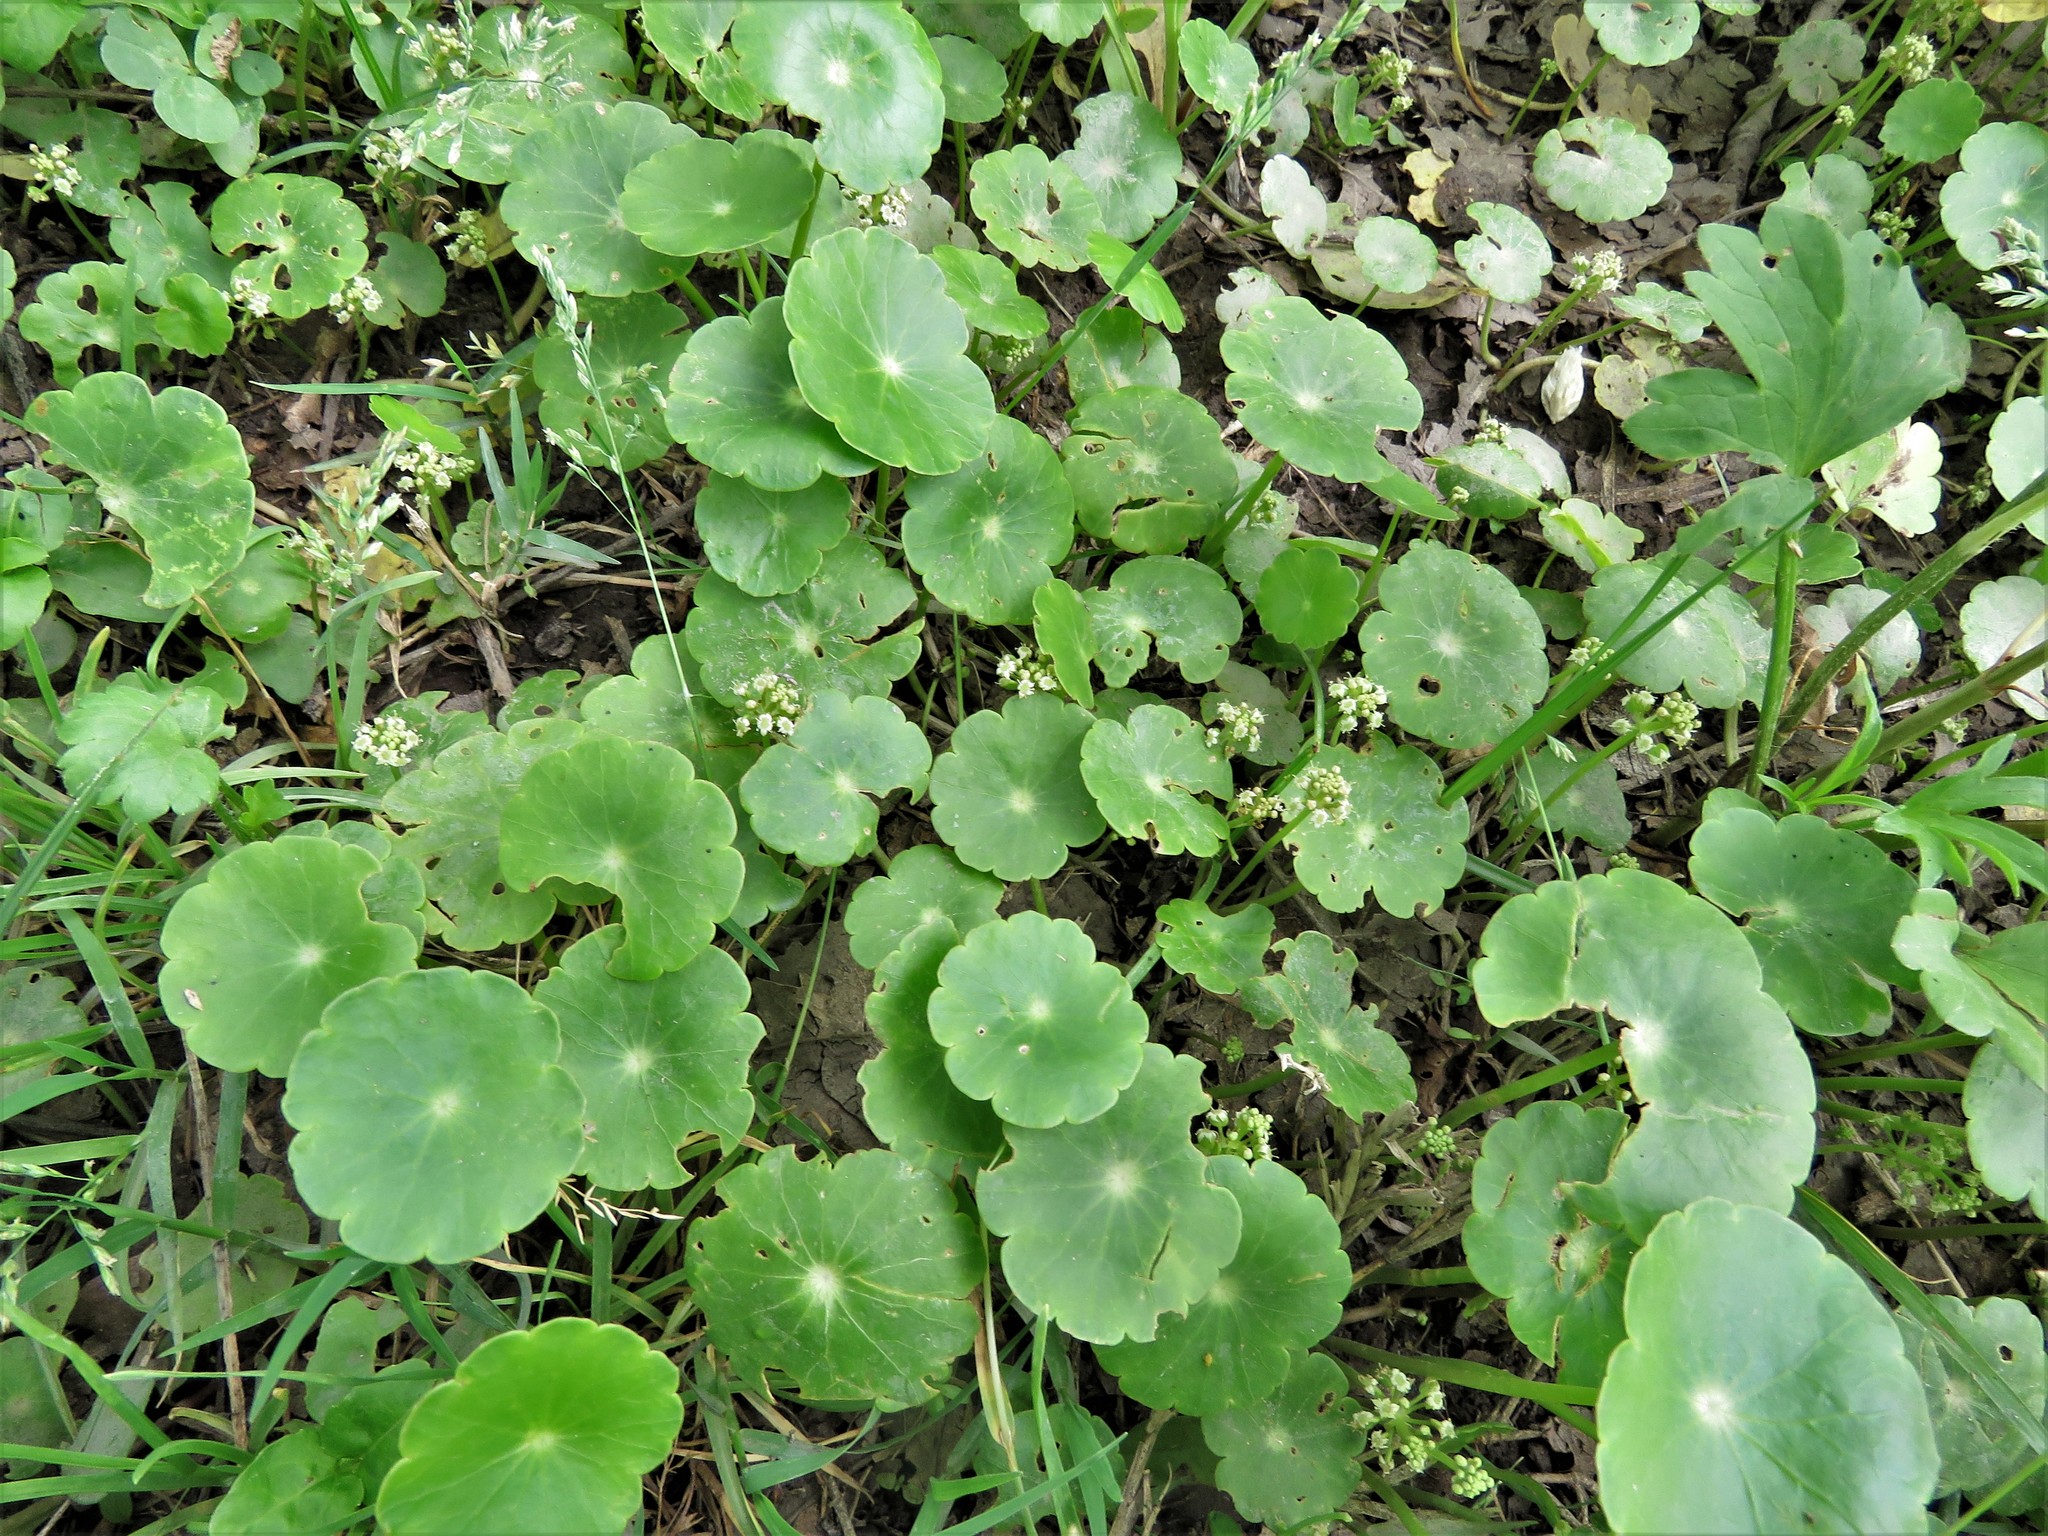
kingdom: Plantae
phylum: Tracheophyta
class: Magnoliopsida
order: Apiales
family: Araliaceae
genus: Hydrocotyle
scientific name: Hydrocotyle umbellata
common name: Water pennywort
